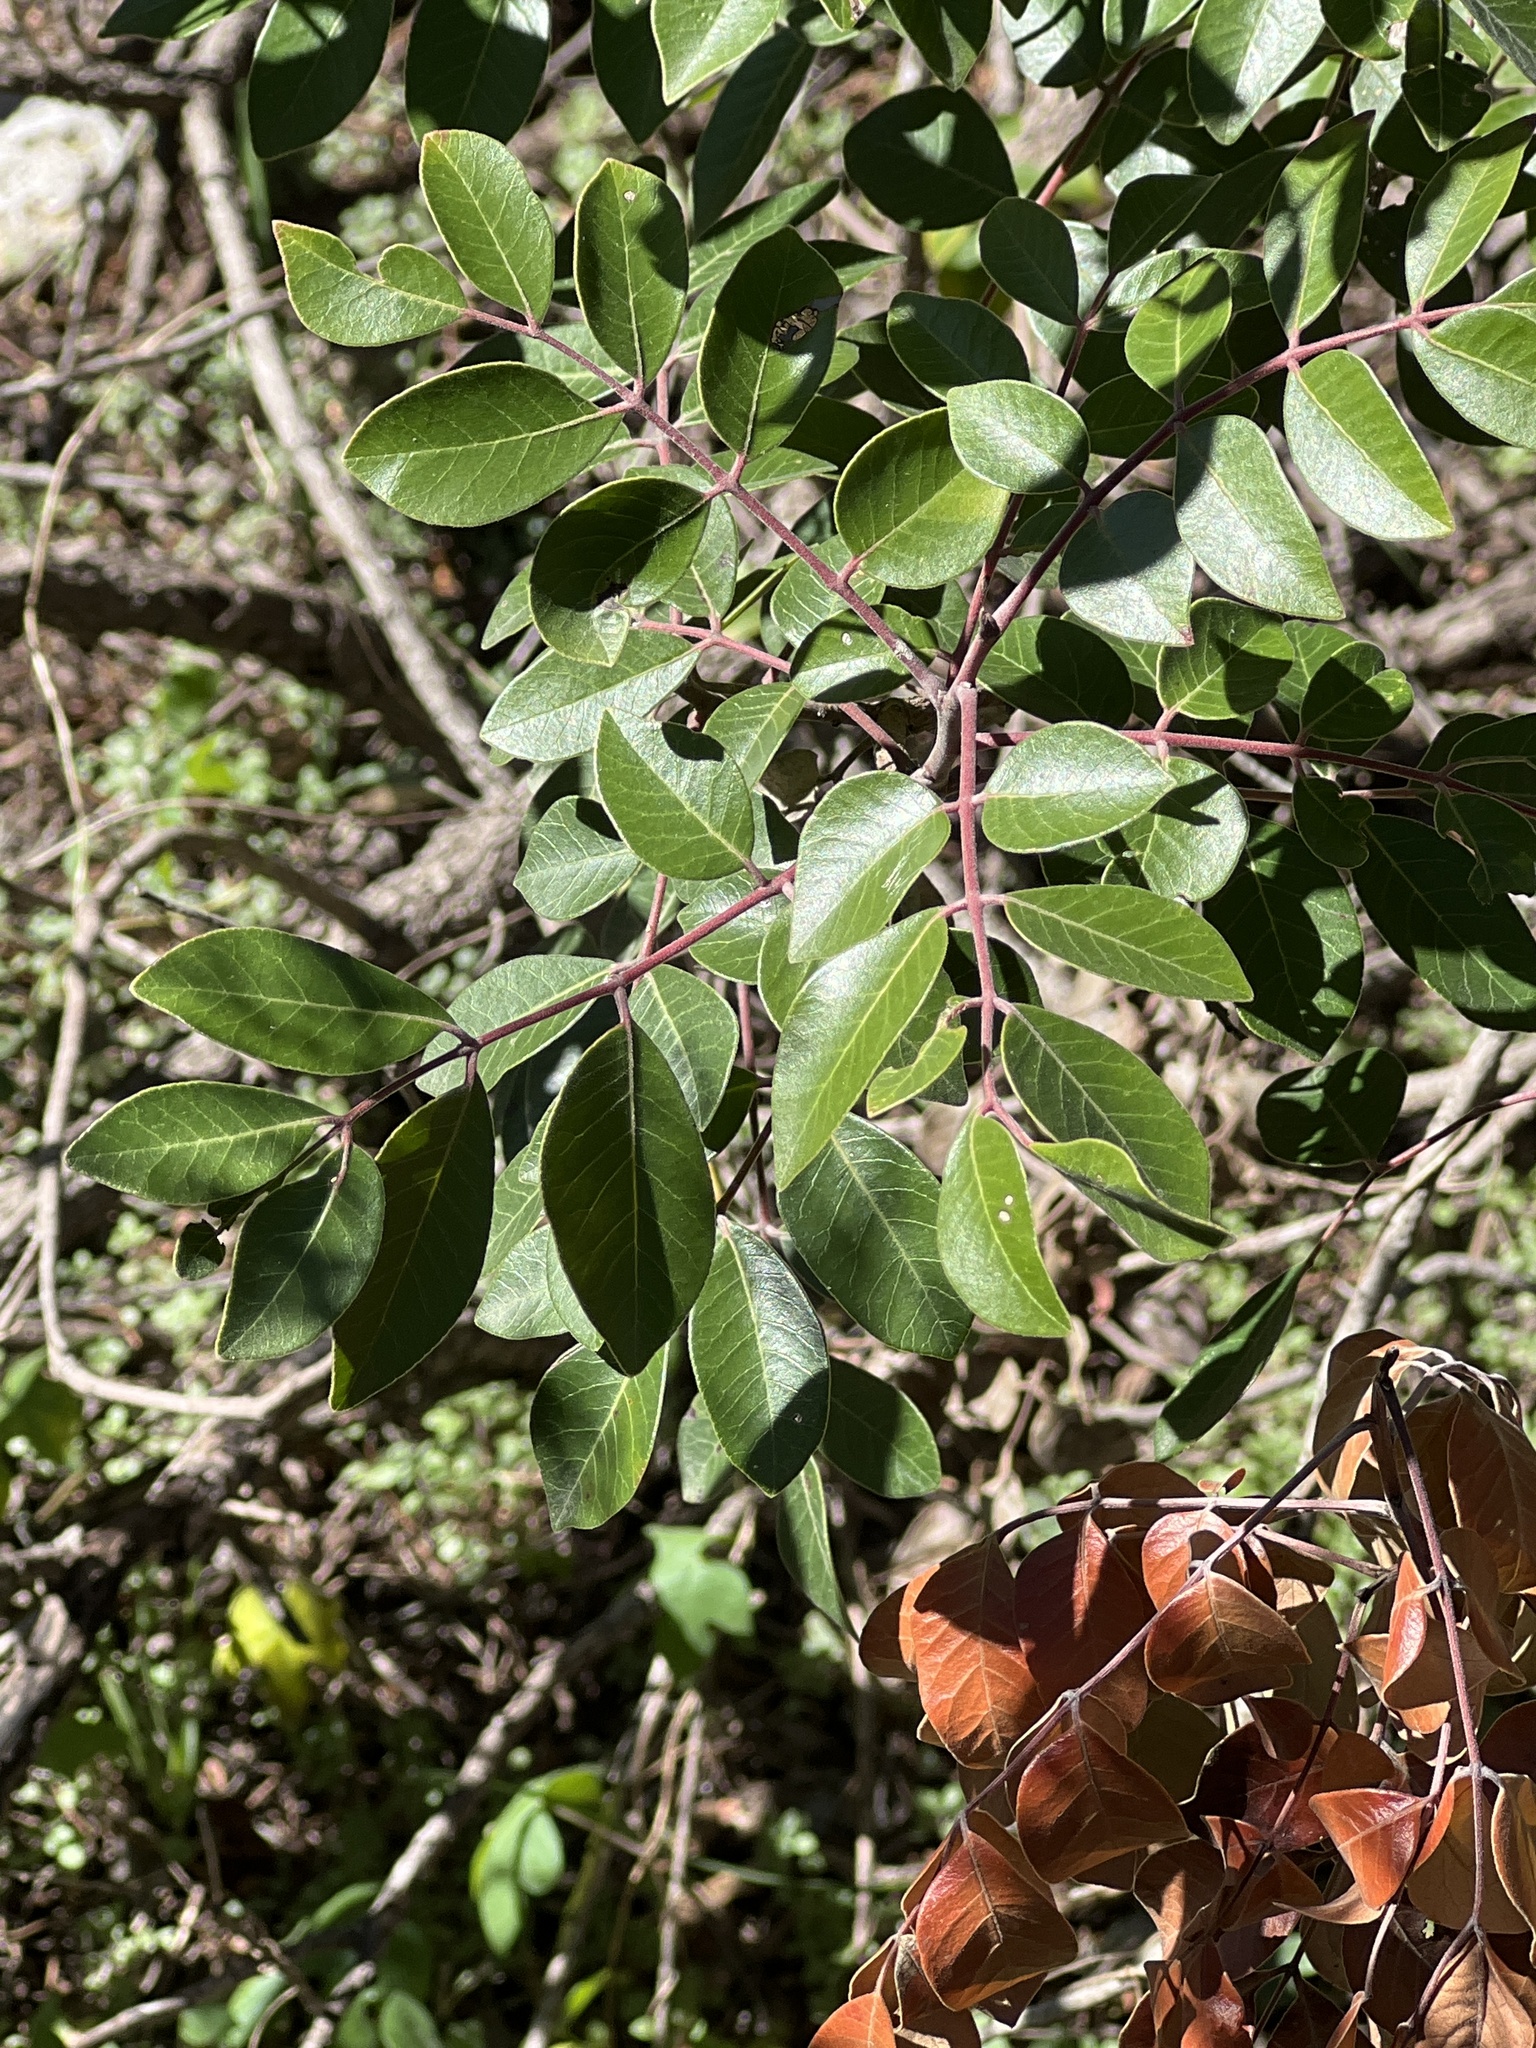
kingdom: Plantae
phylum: Tracheophyta
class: Magnoliopsida
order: Sapindales
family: Anacardiaceae
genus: Rhus
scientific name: Rhus virens
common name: Evergreen sumac
